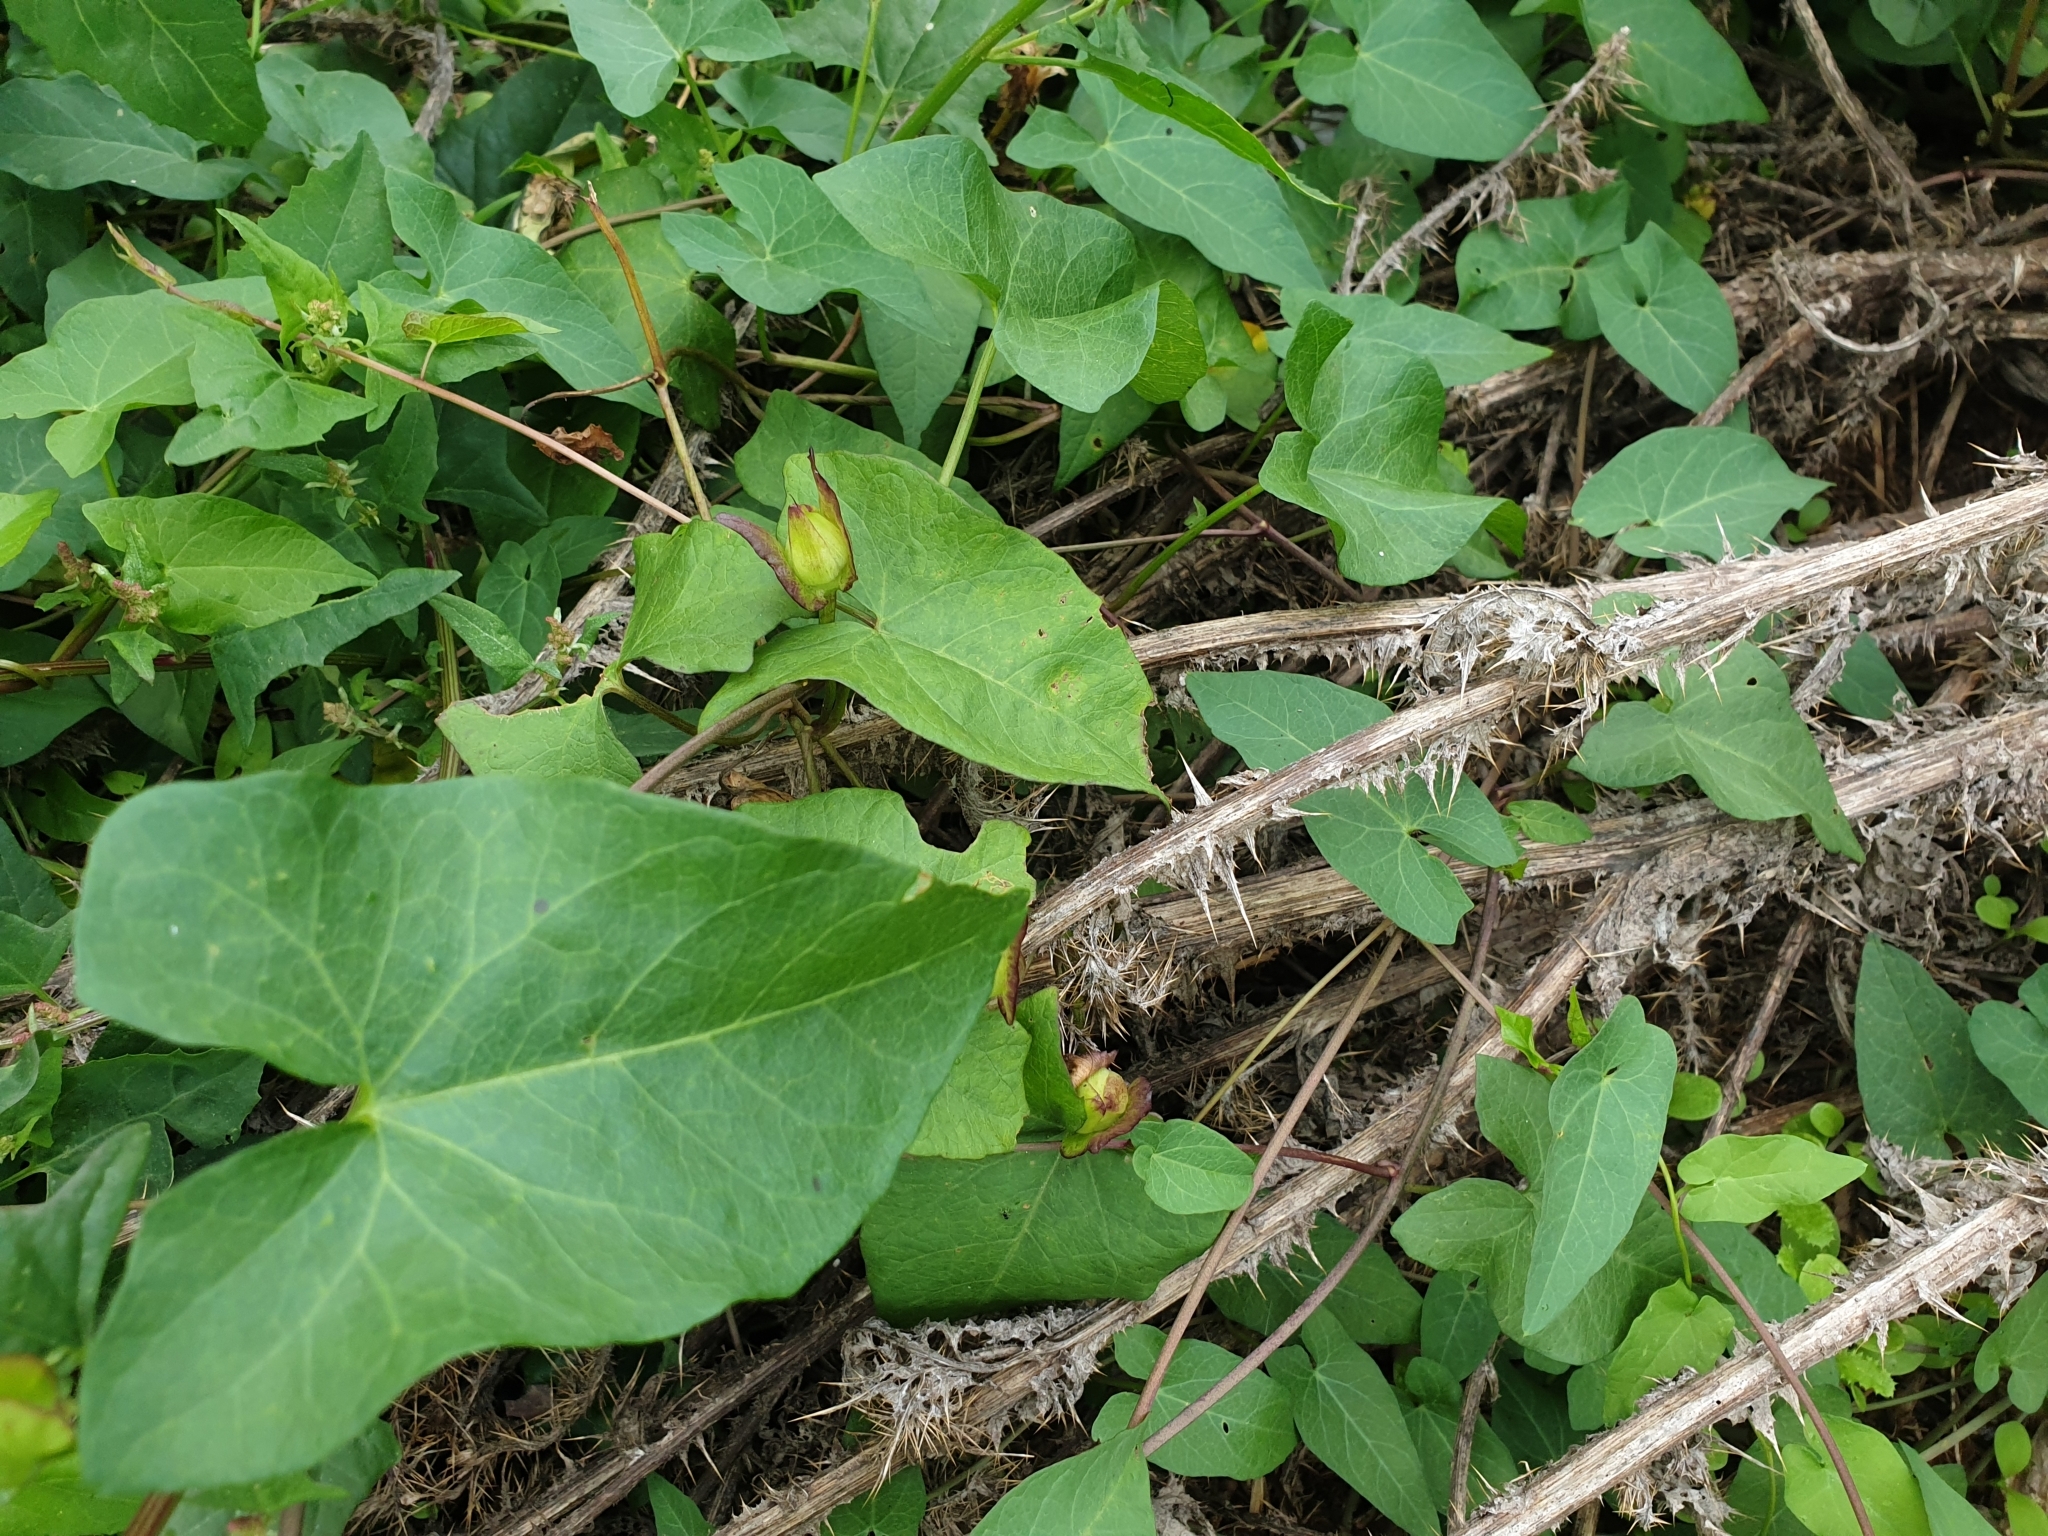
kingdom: Plantae
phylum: Tracheophyta
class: Magnoliopsida
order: Solanales
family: Convolvulaceae
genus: Calystegia
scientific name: Calystegia sepium
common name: Hedge bindweed
